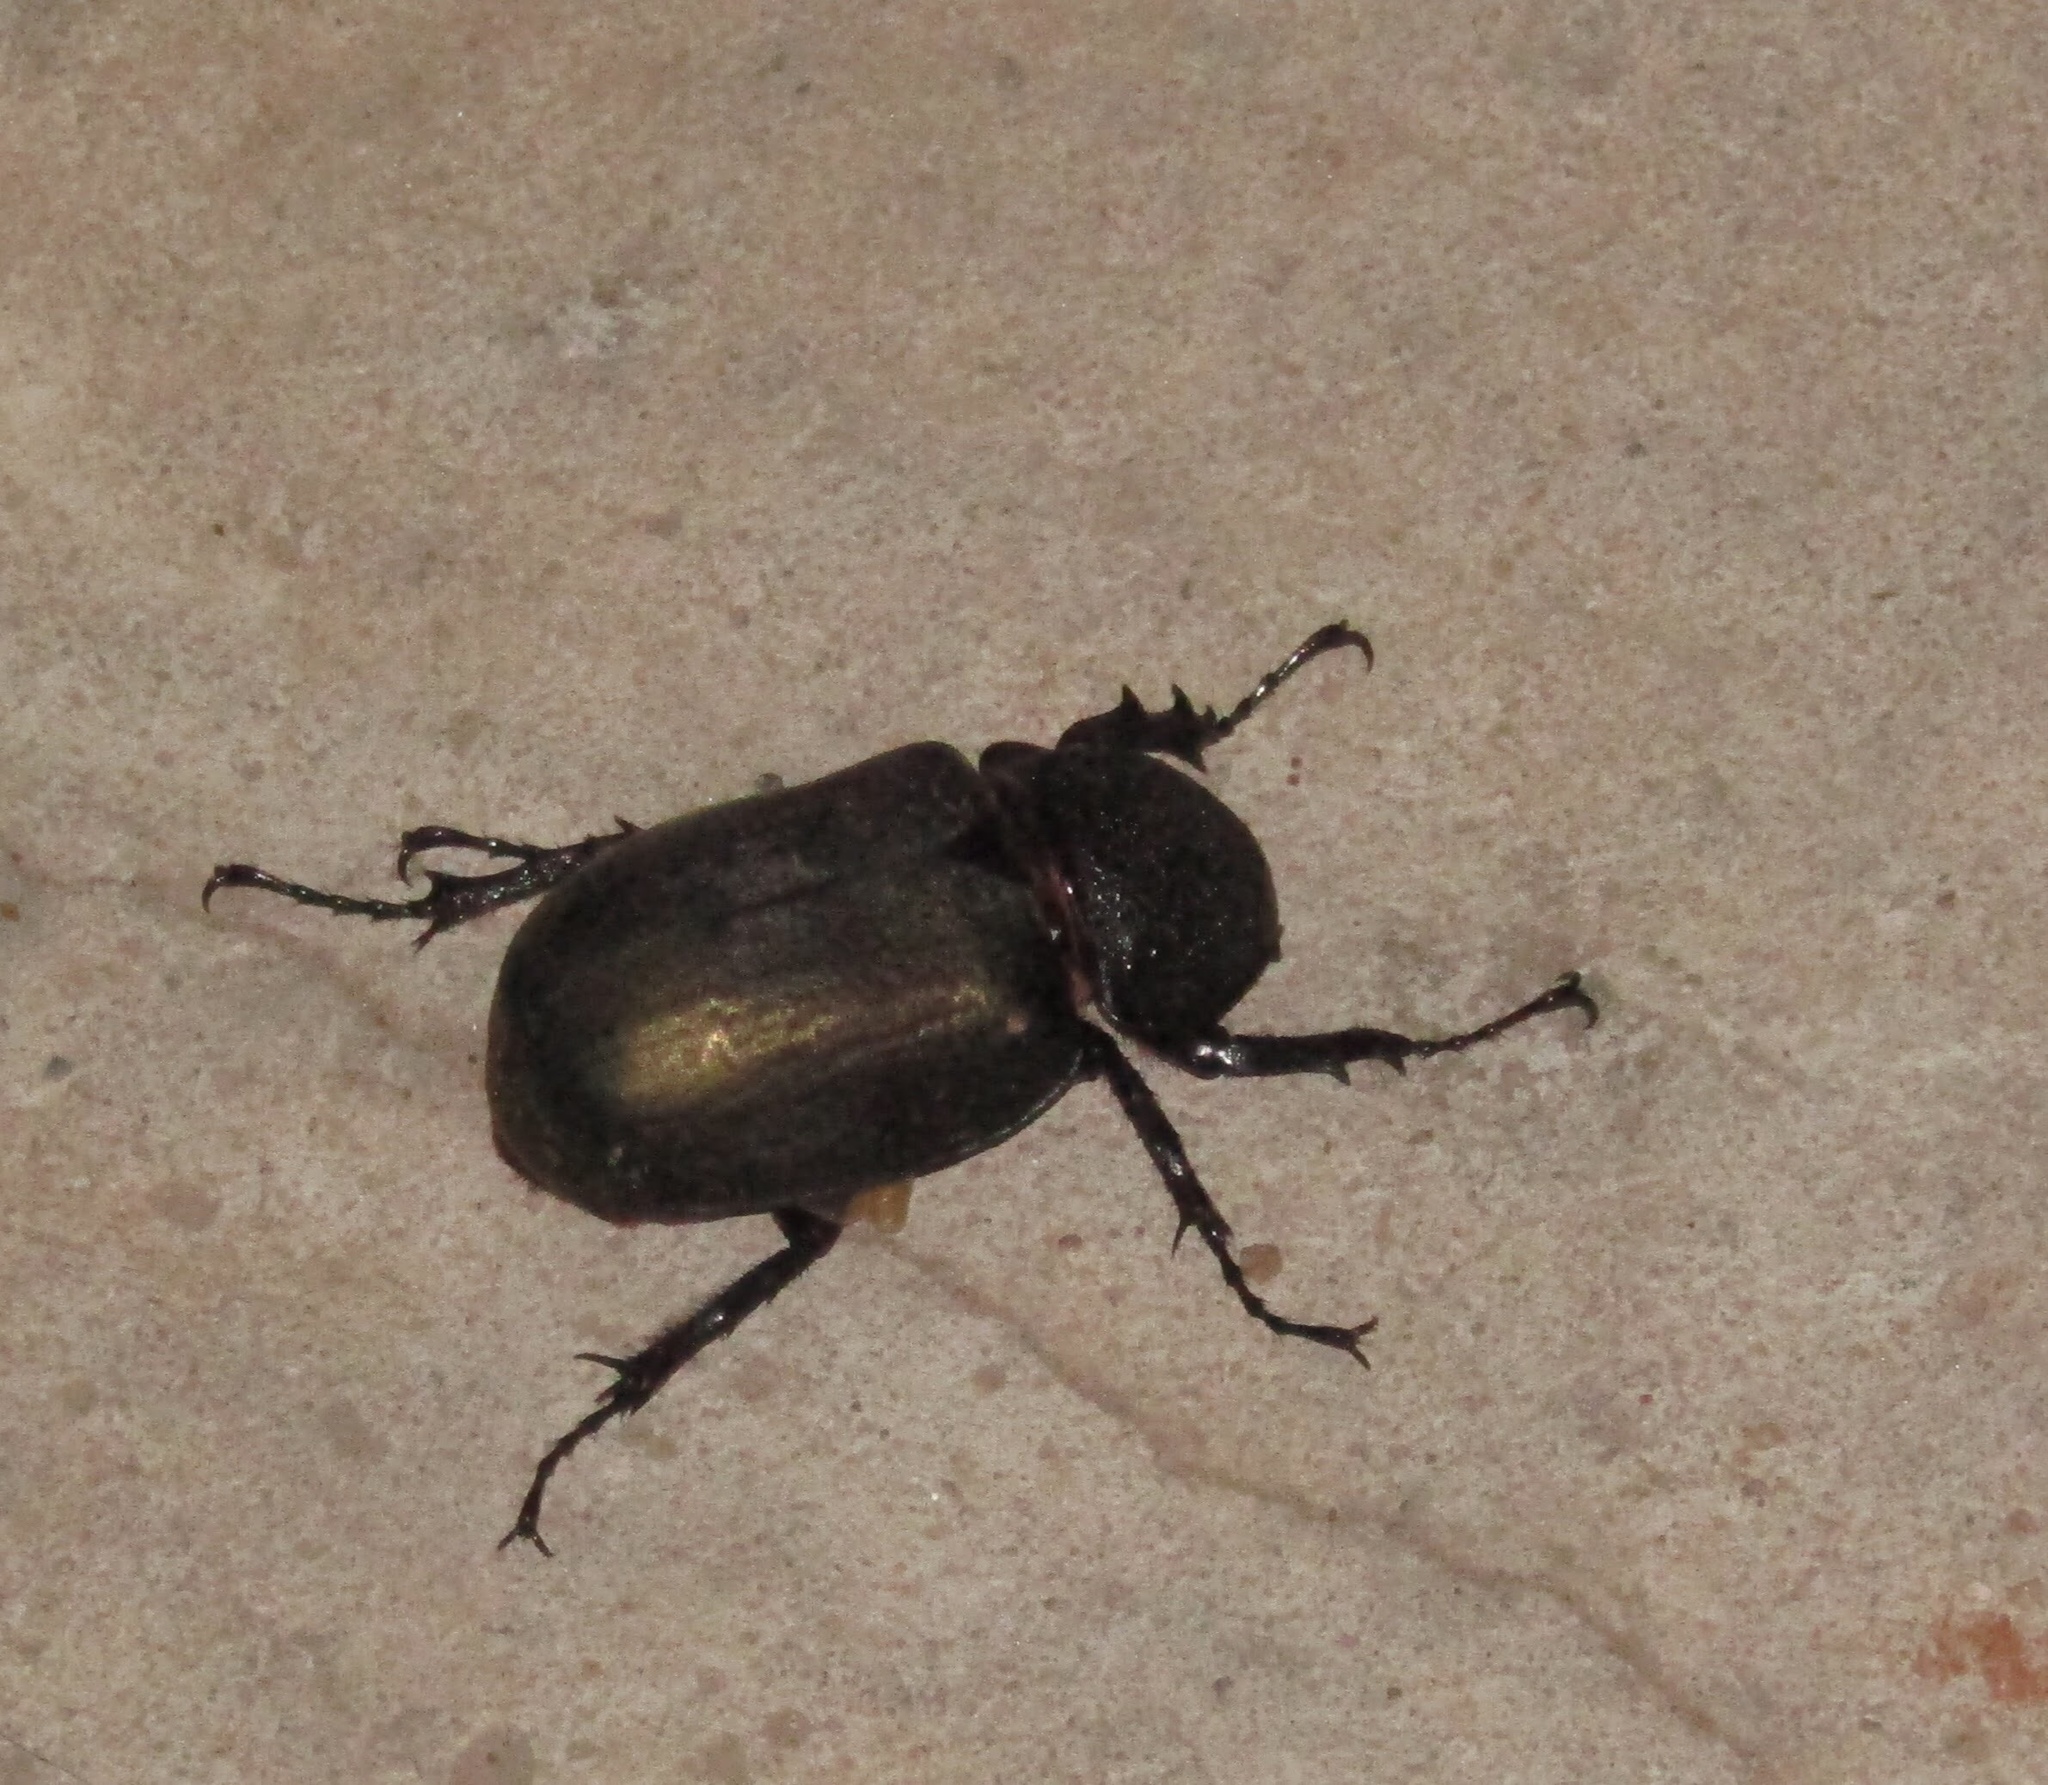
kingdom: Animalia
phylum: Arthropoda
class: Insecta
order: Coleoptera
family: Scarabaeidae
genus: Chalcosoma
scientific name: Chalcosoma atlas
